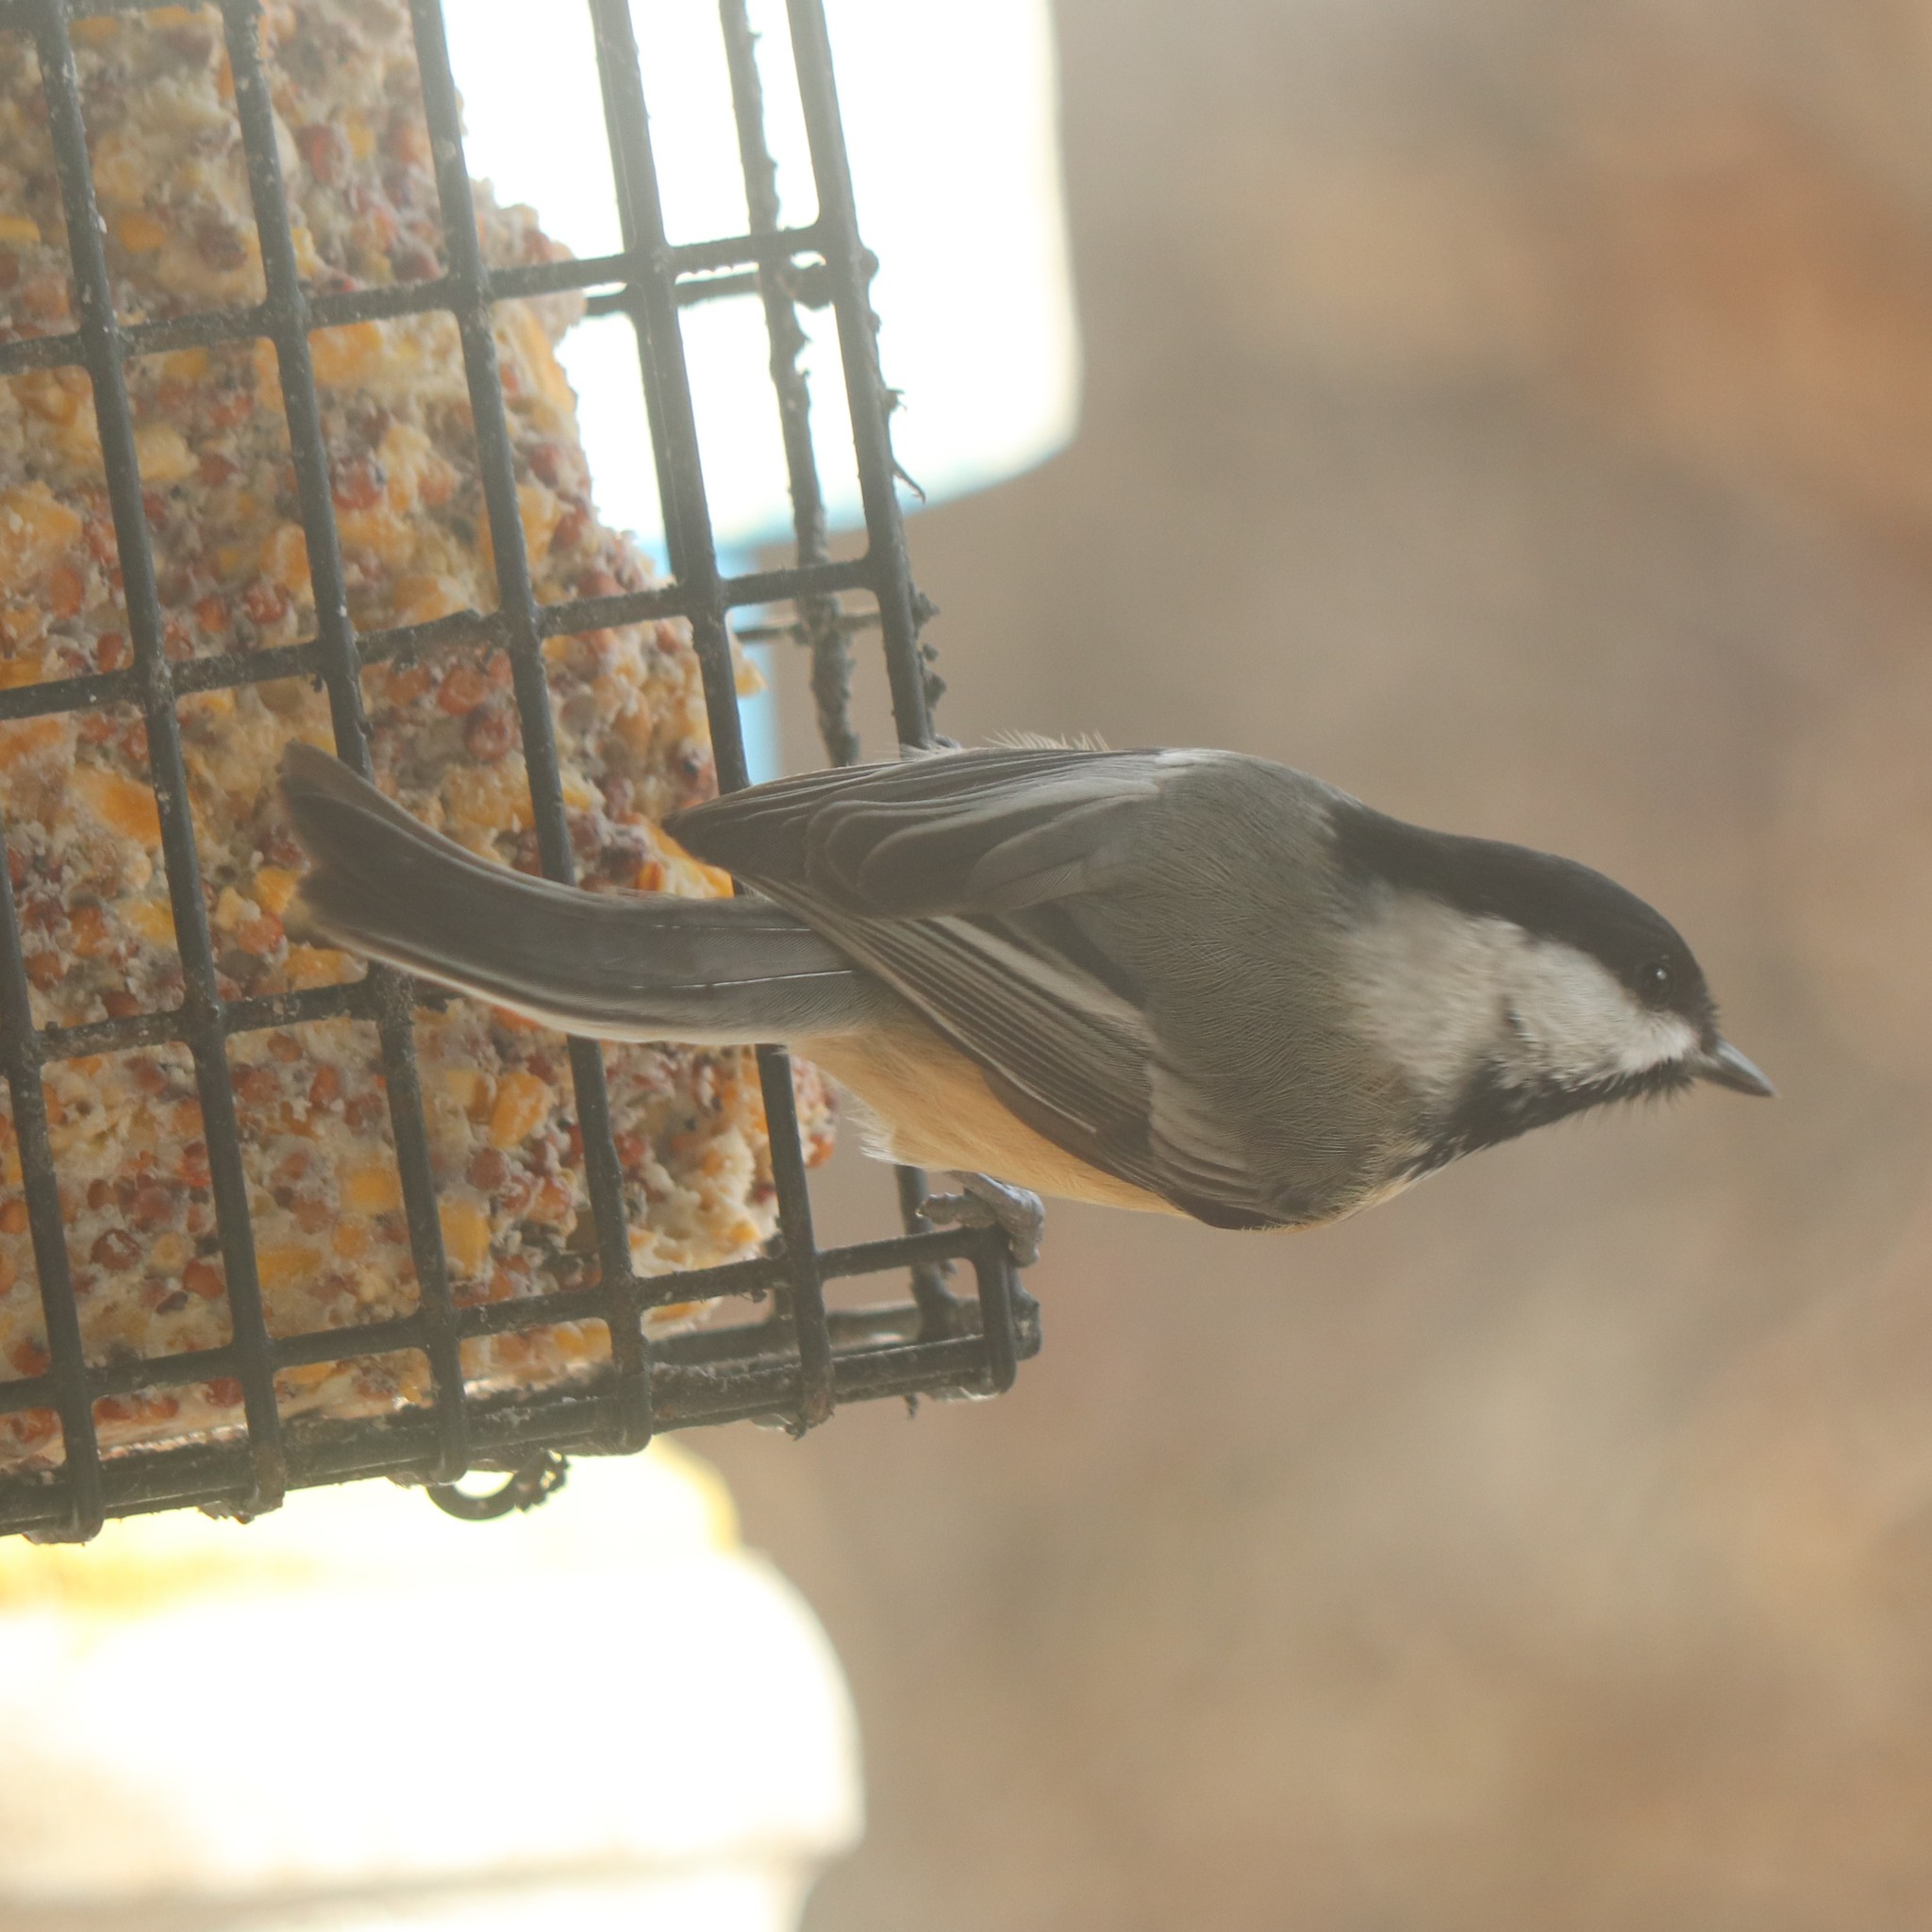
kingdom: Animalia
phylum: Chordata
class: Aves
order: Passeriformes
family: Paridae
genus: Poecile
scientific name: Poecile atricapillus
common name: Black-capped chickadee
